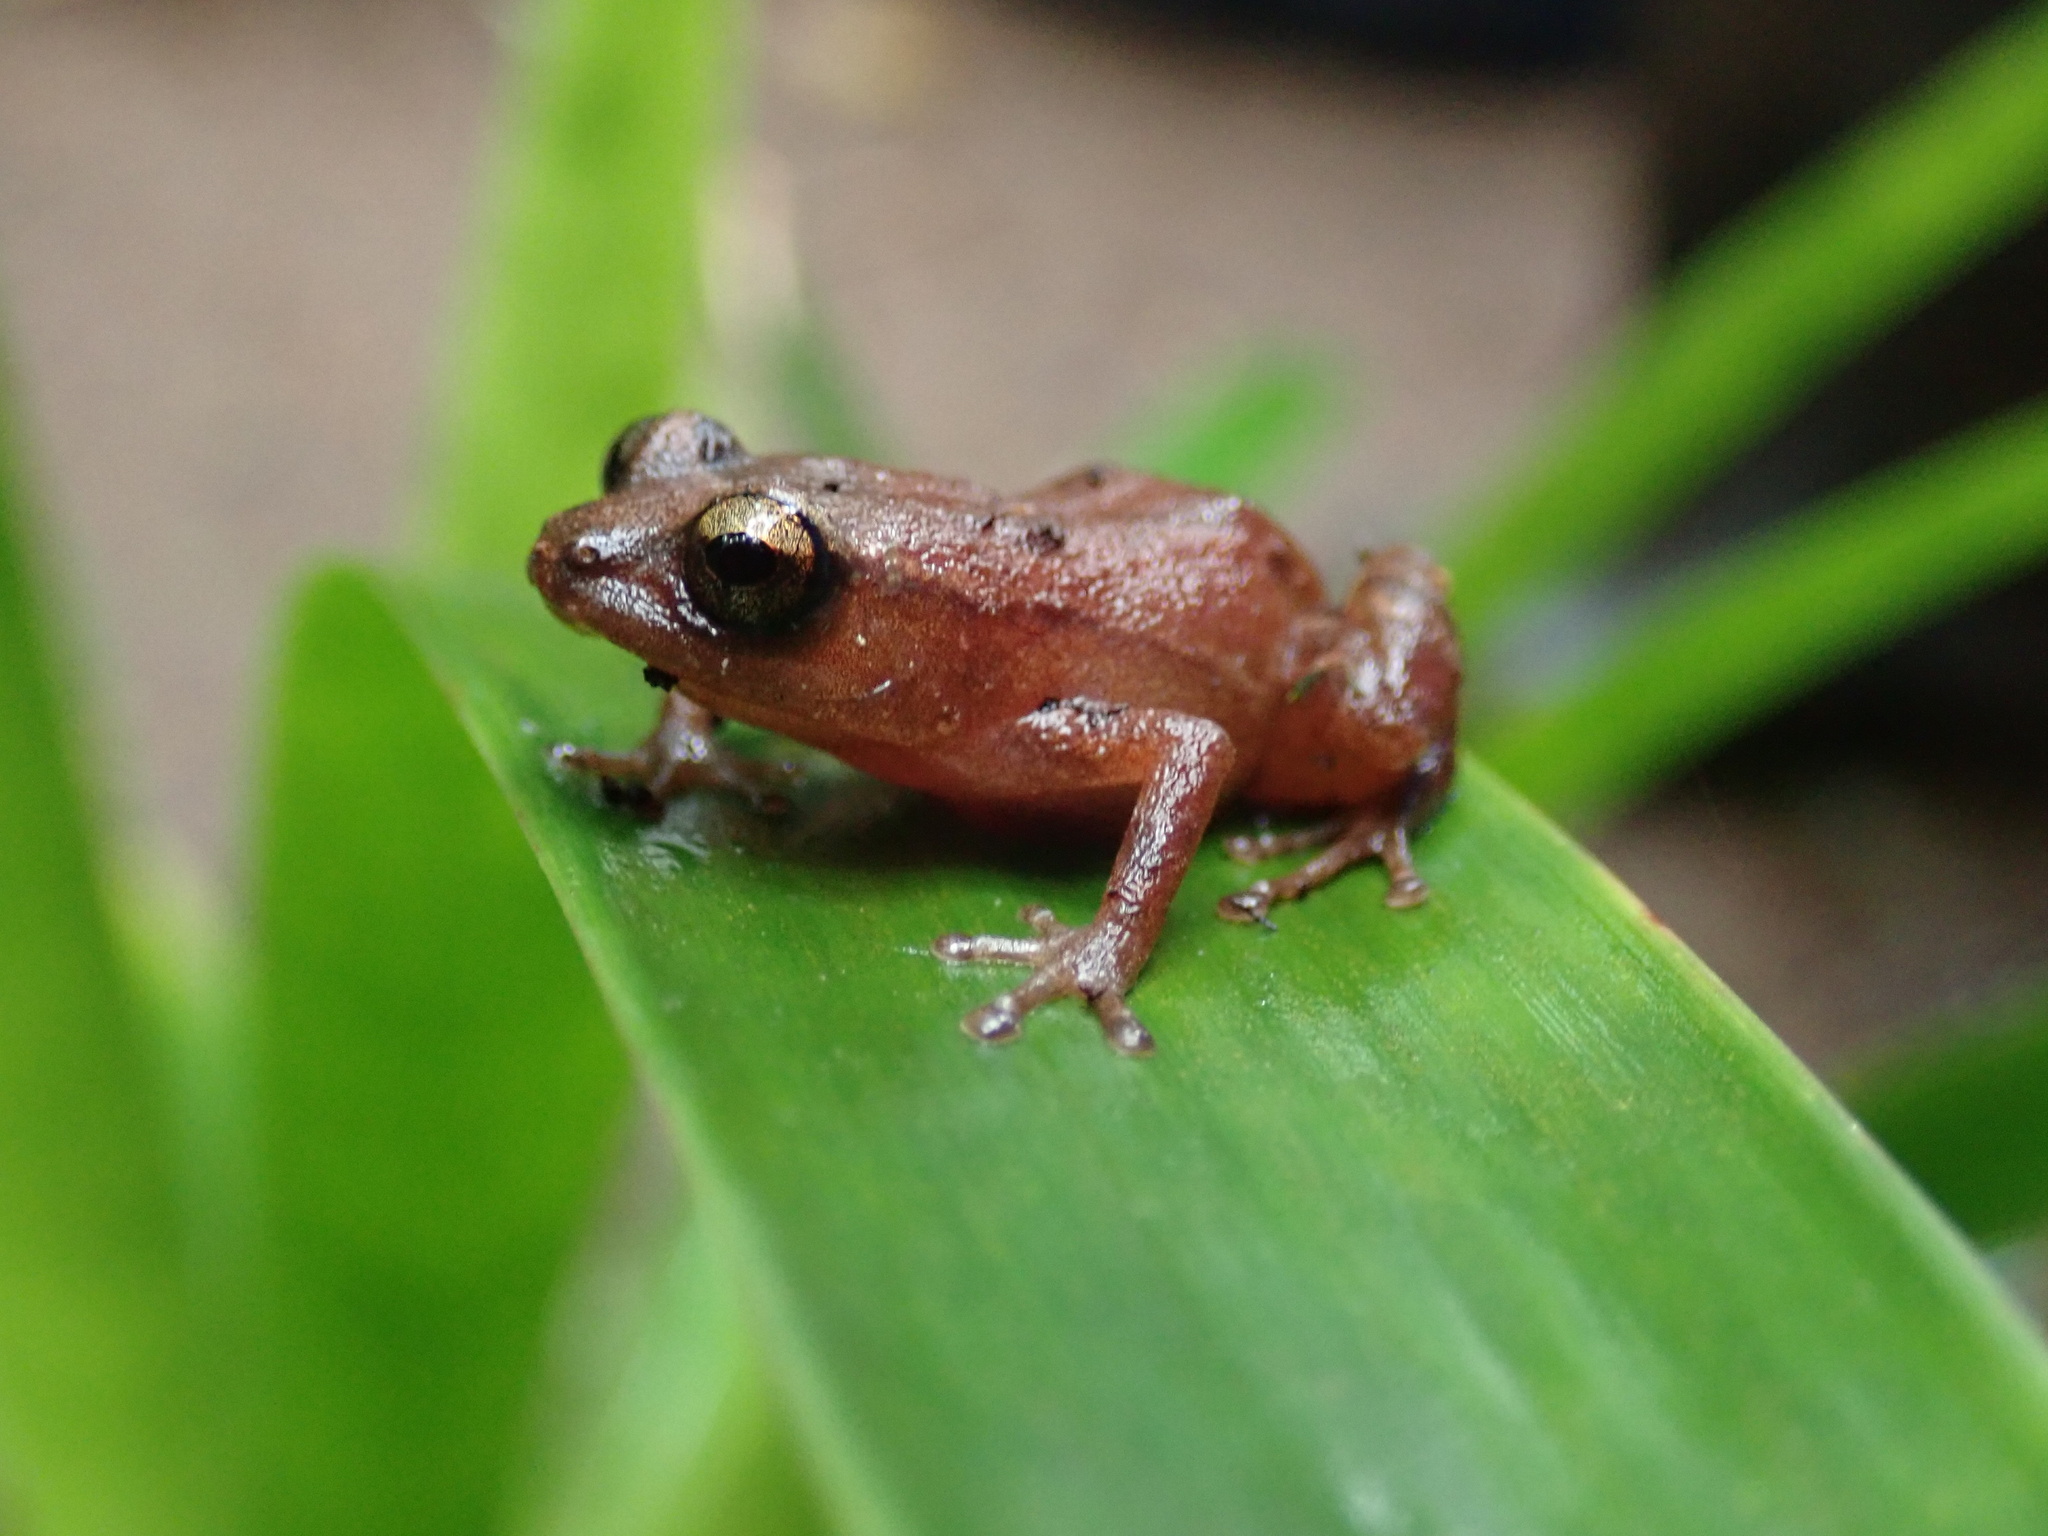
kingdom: Animalia
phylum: Chordata
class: Amphibia
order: Anura
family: Eleutherodactylidae
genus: Diasporus
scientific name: Diasporus majeensis
